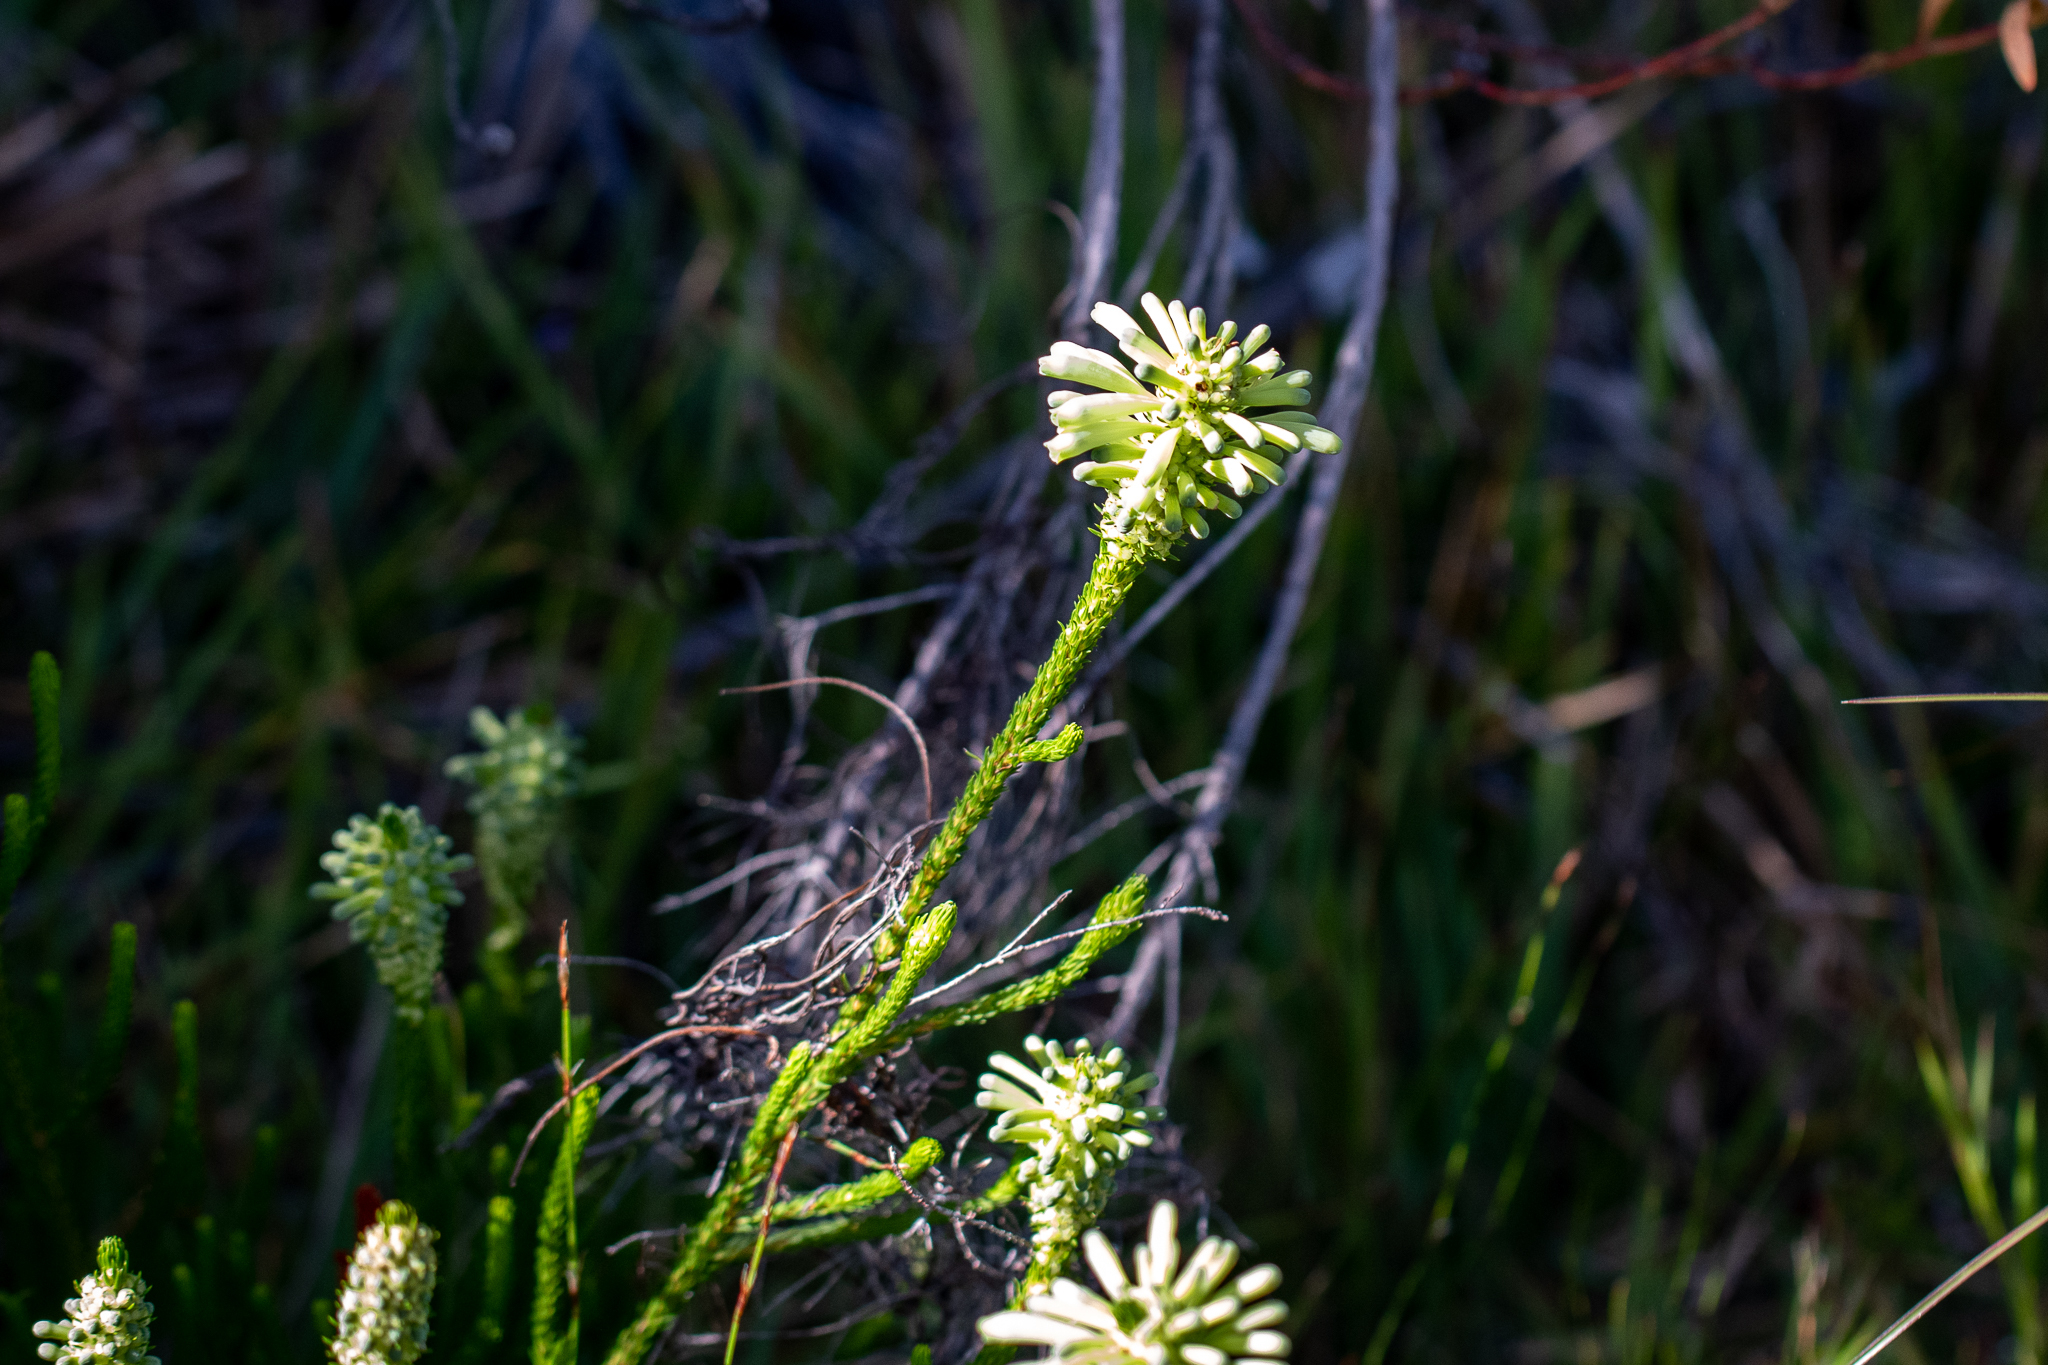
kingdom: Plantae
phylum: Tracheophyta
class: Magnoliopsida
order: Ericales
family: Ericaceae
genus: Erica
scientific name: Erica sessiliflora
